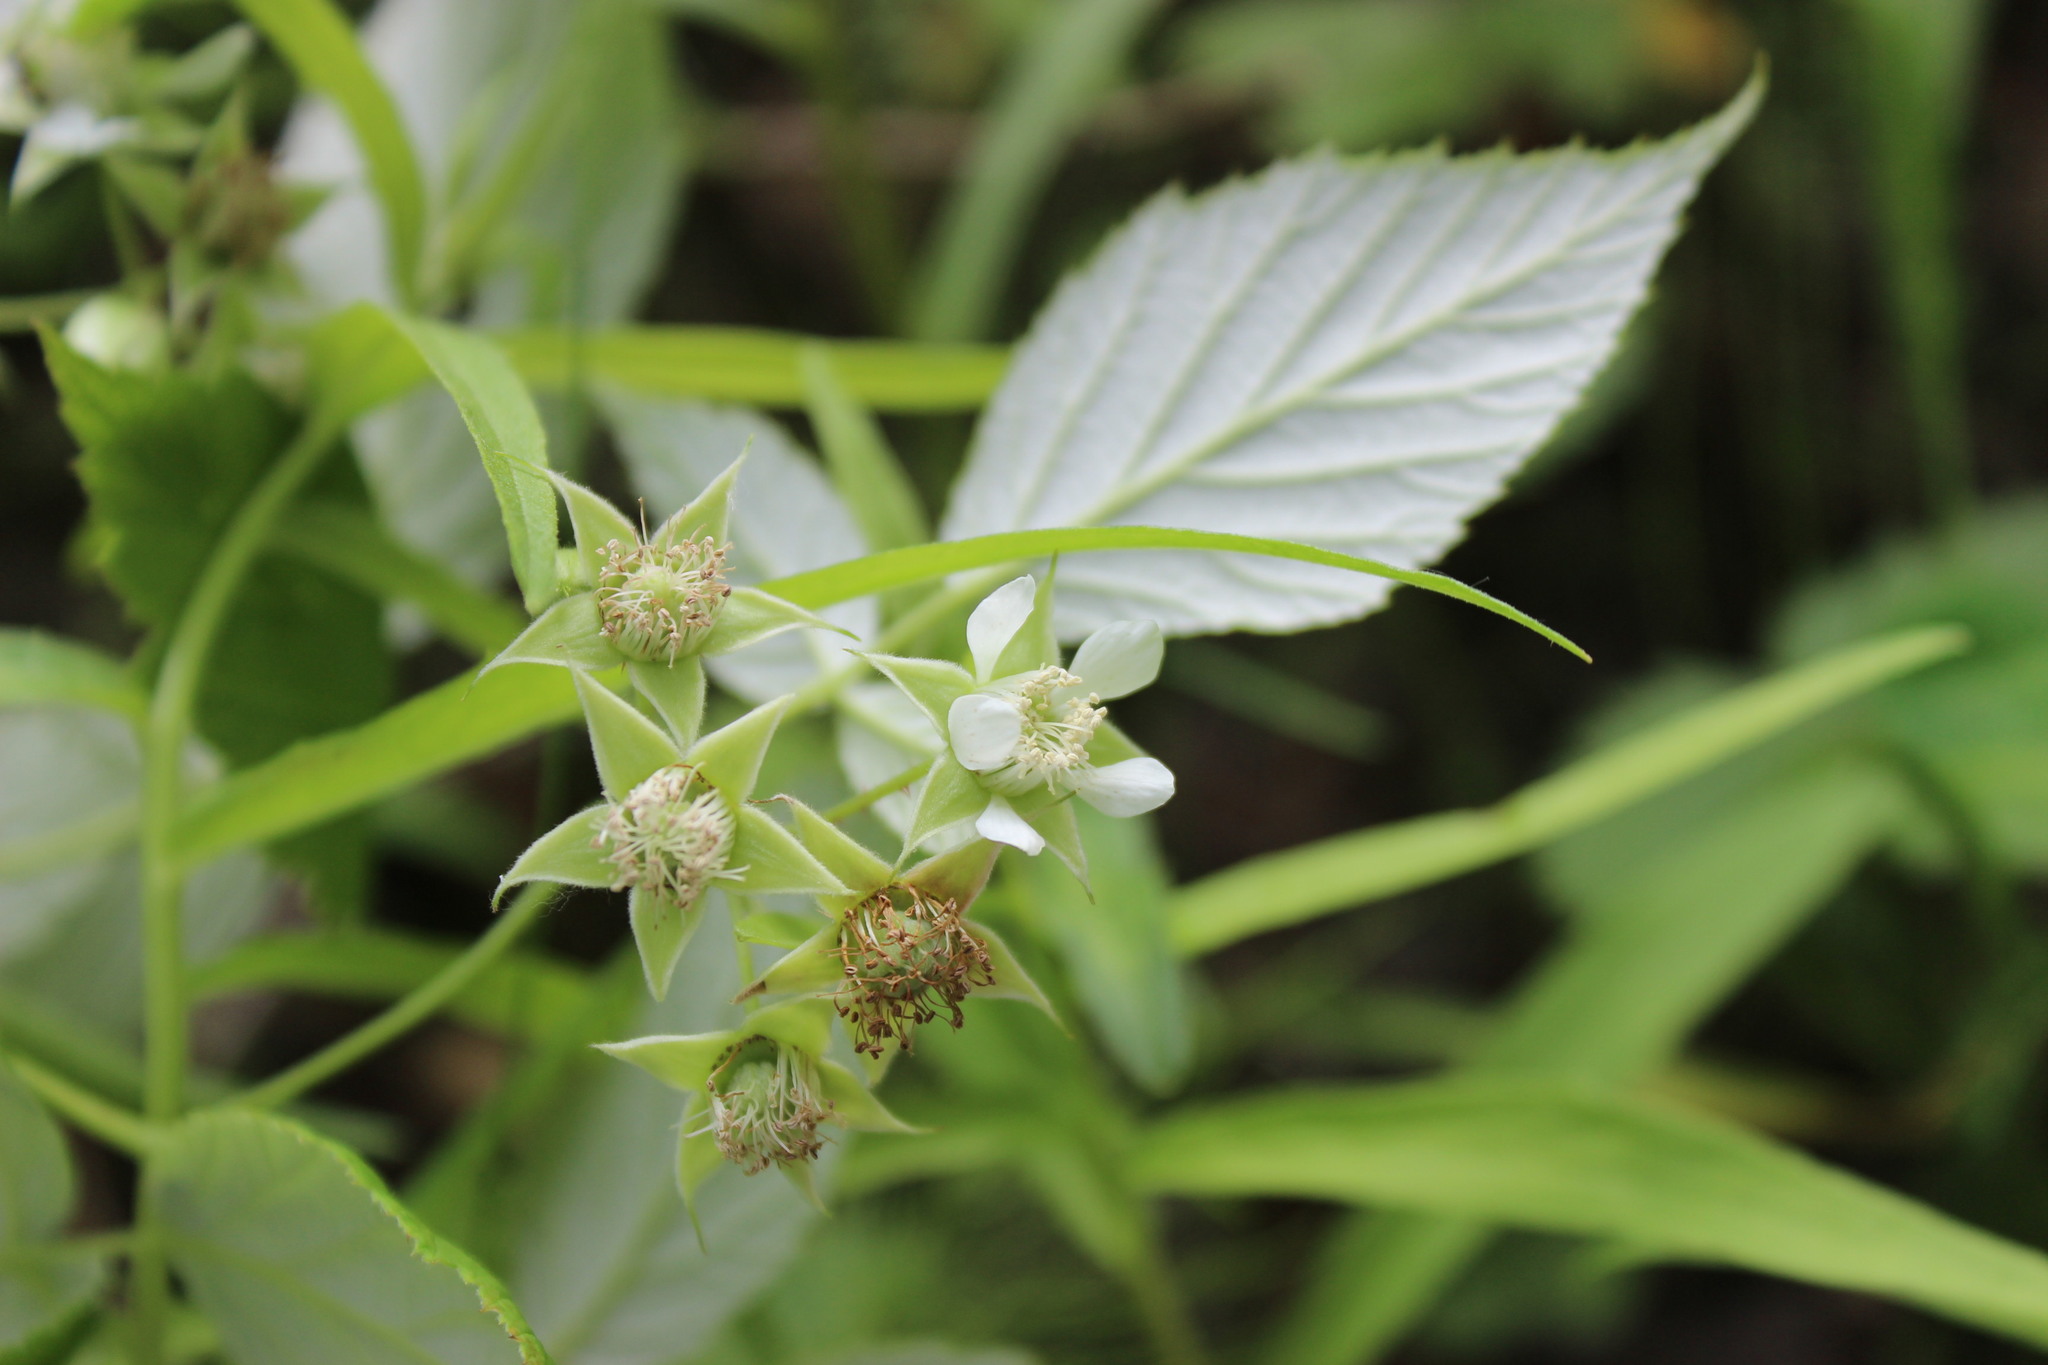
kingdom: Plantae
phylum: Tracheophyta
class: Magnoliopsida
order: Rosales
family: Rosaceae
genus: Rubus
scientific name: Rubus idaeus
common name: Raspberry
